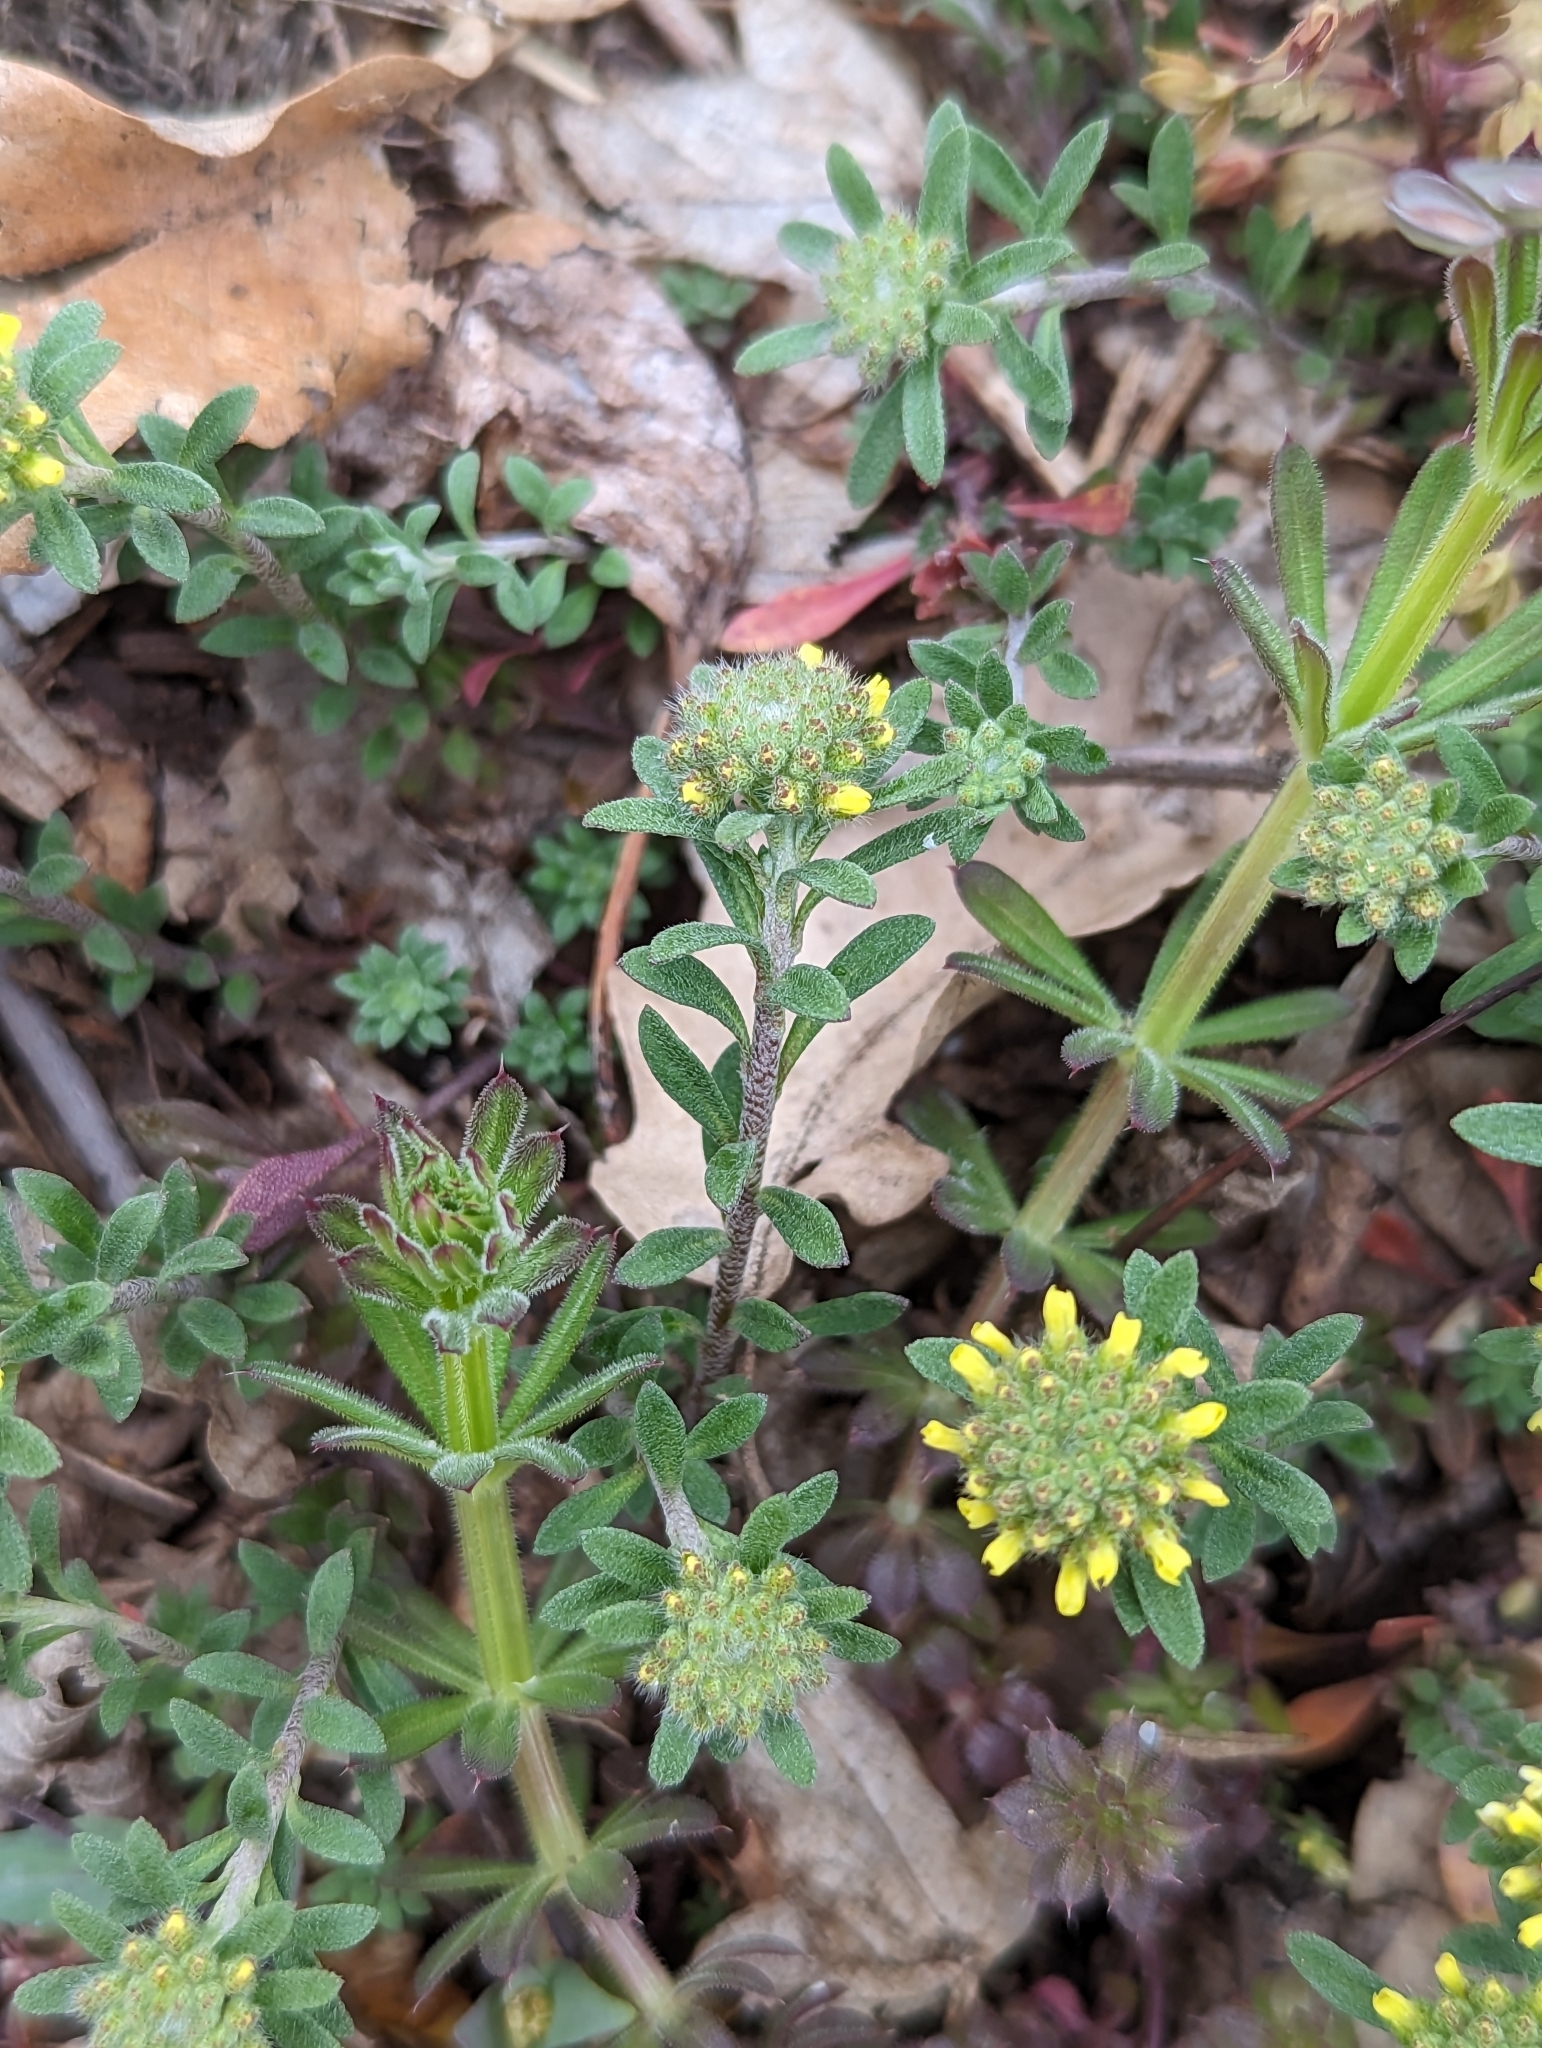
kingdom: Plantae
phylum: Tracheophyta
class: Magnoliopsida
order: Brassicales
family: Brassicaceae
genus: Alyssum
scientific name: Alyssum alyssoides
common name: Small alison
